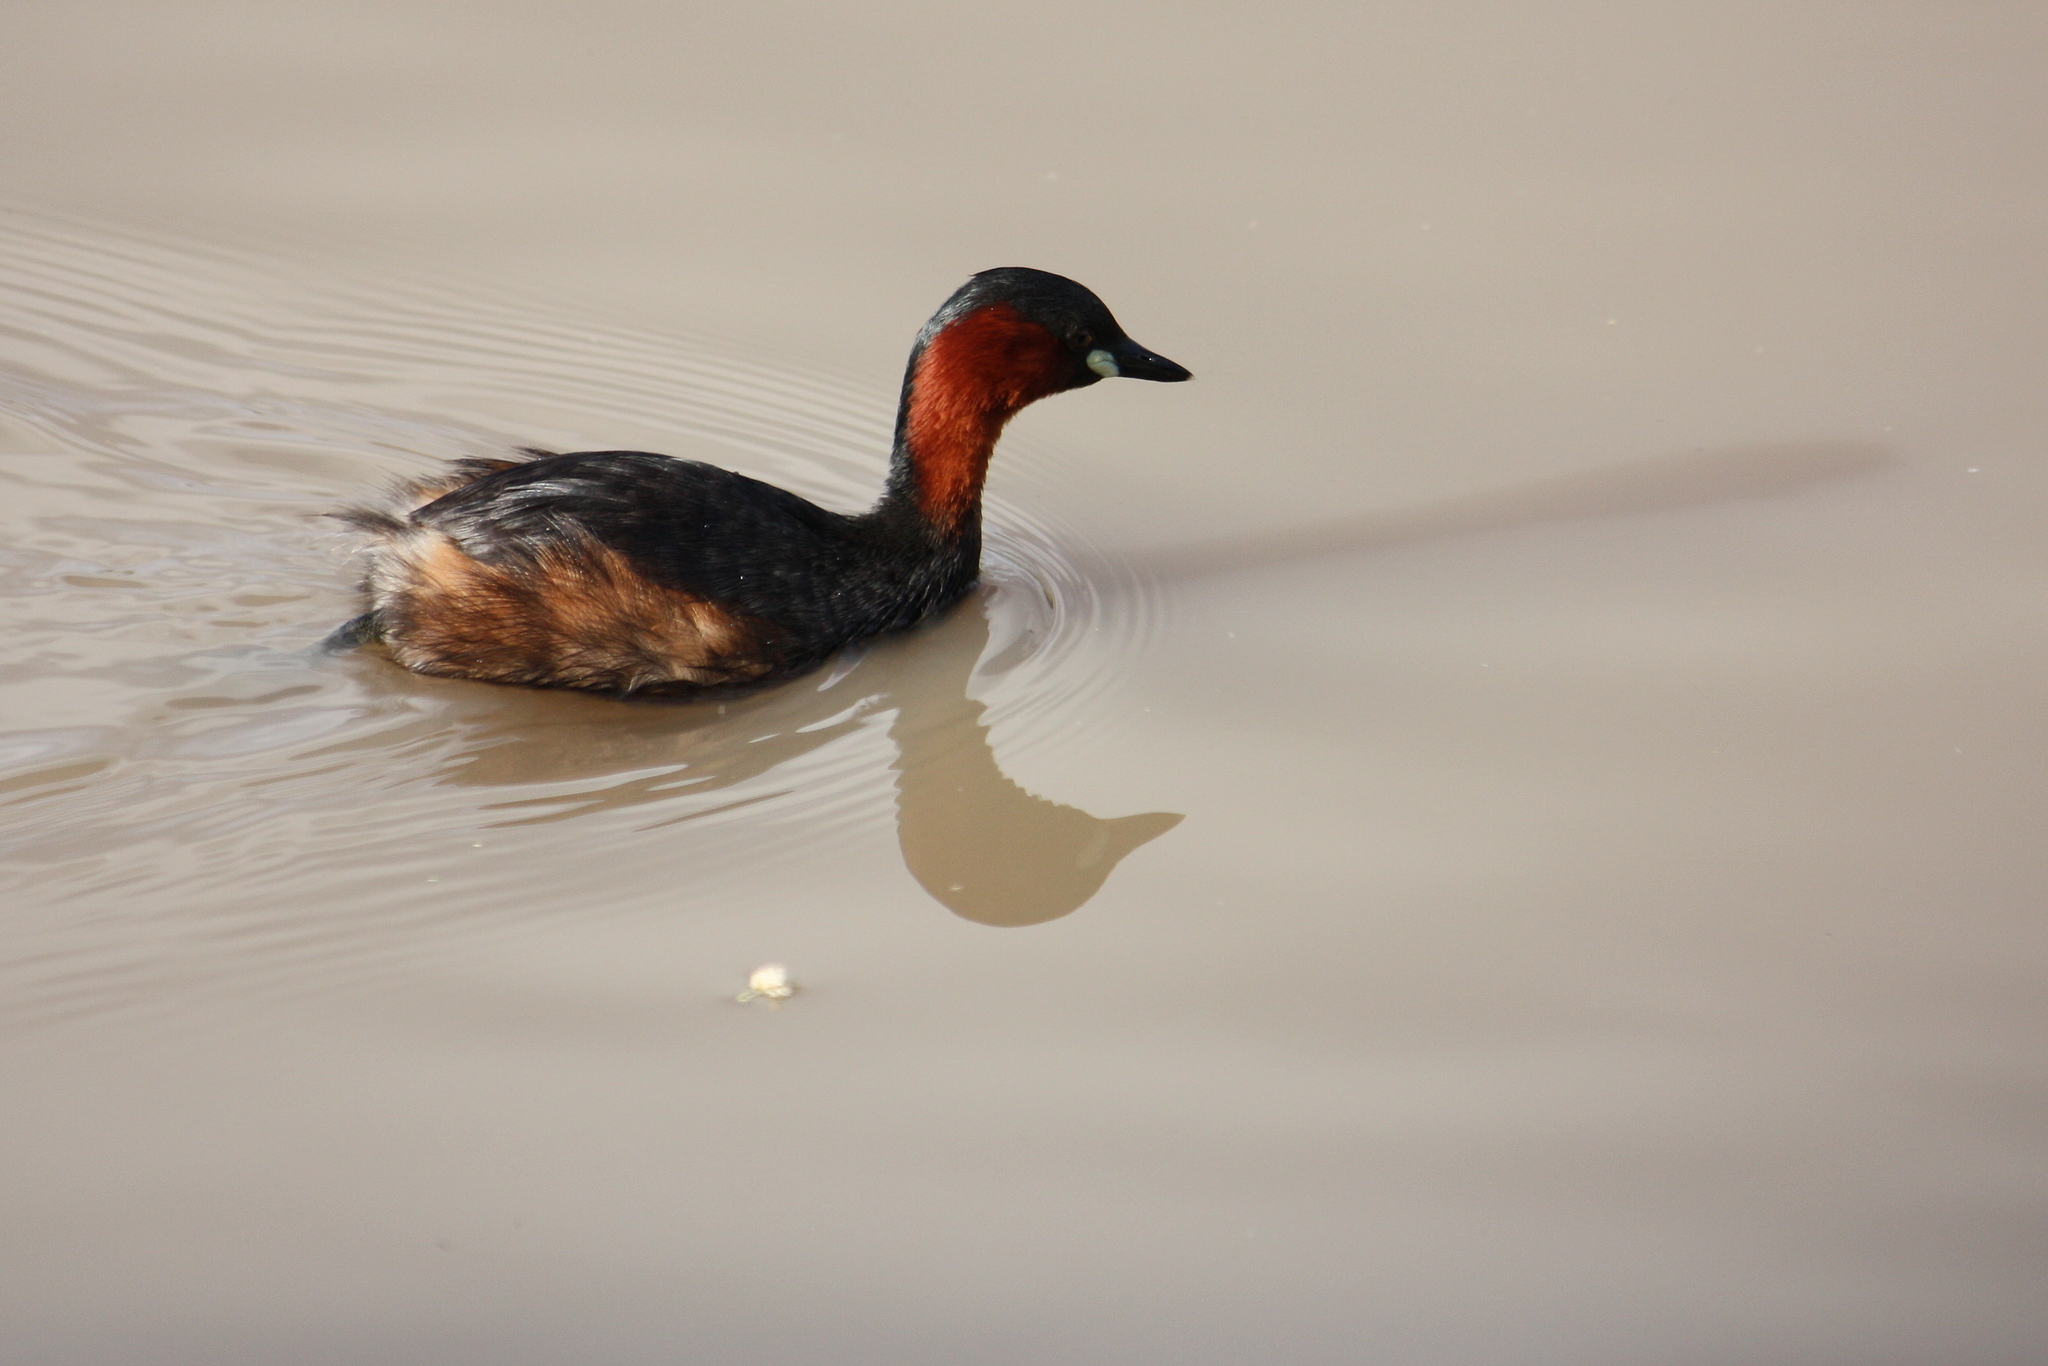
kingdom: Animalia
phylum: Chordata
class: Aves
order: Podicipediformes
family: Podicipedidae
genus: Tachybaptus
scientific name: Tachybaptus ruficollis
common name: Little grebe
